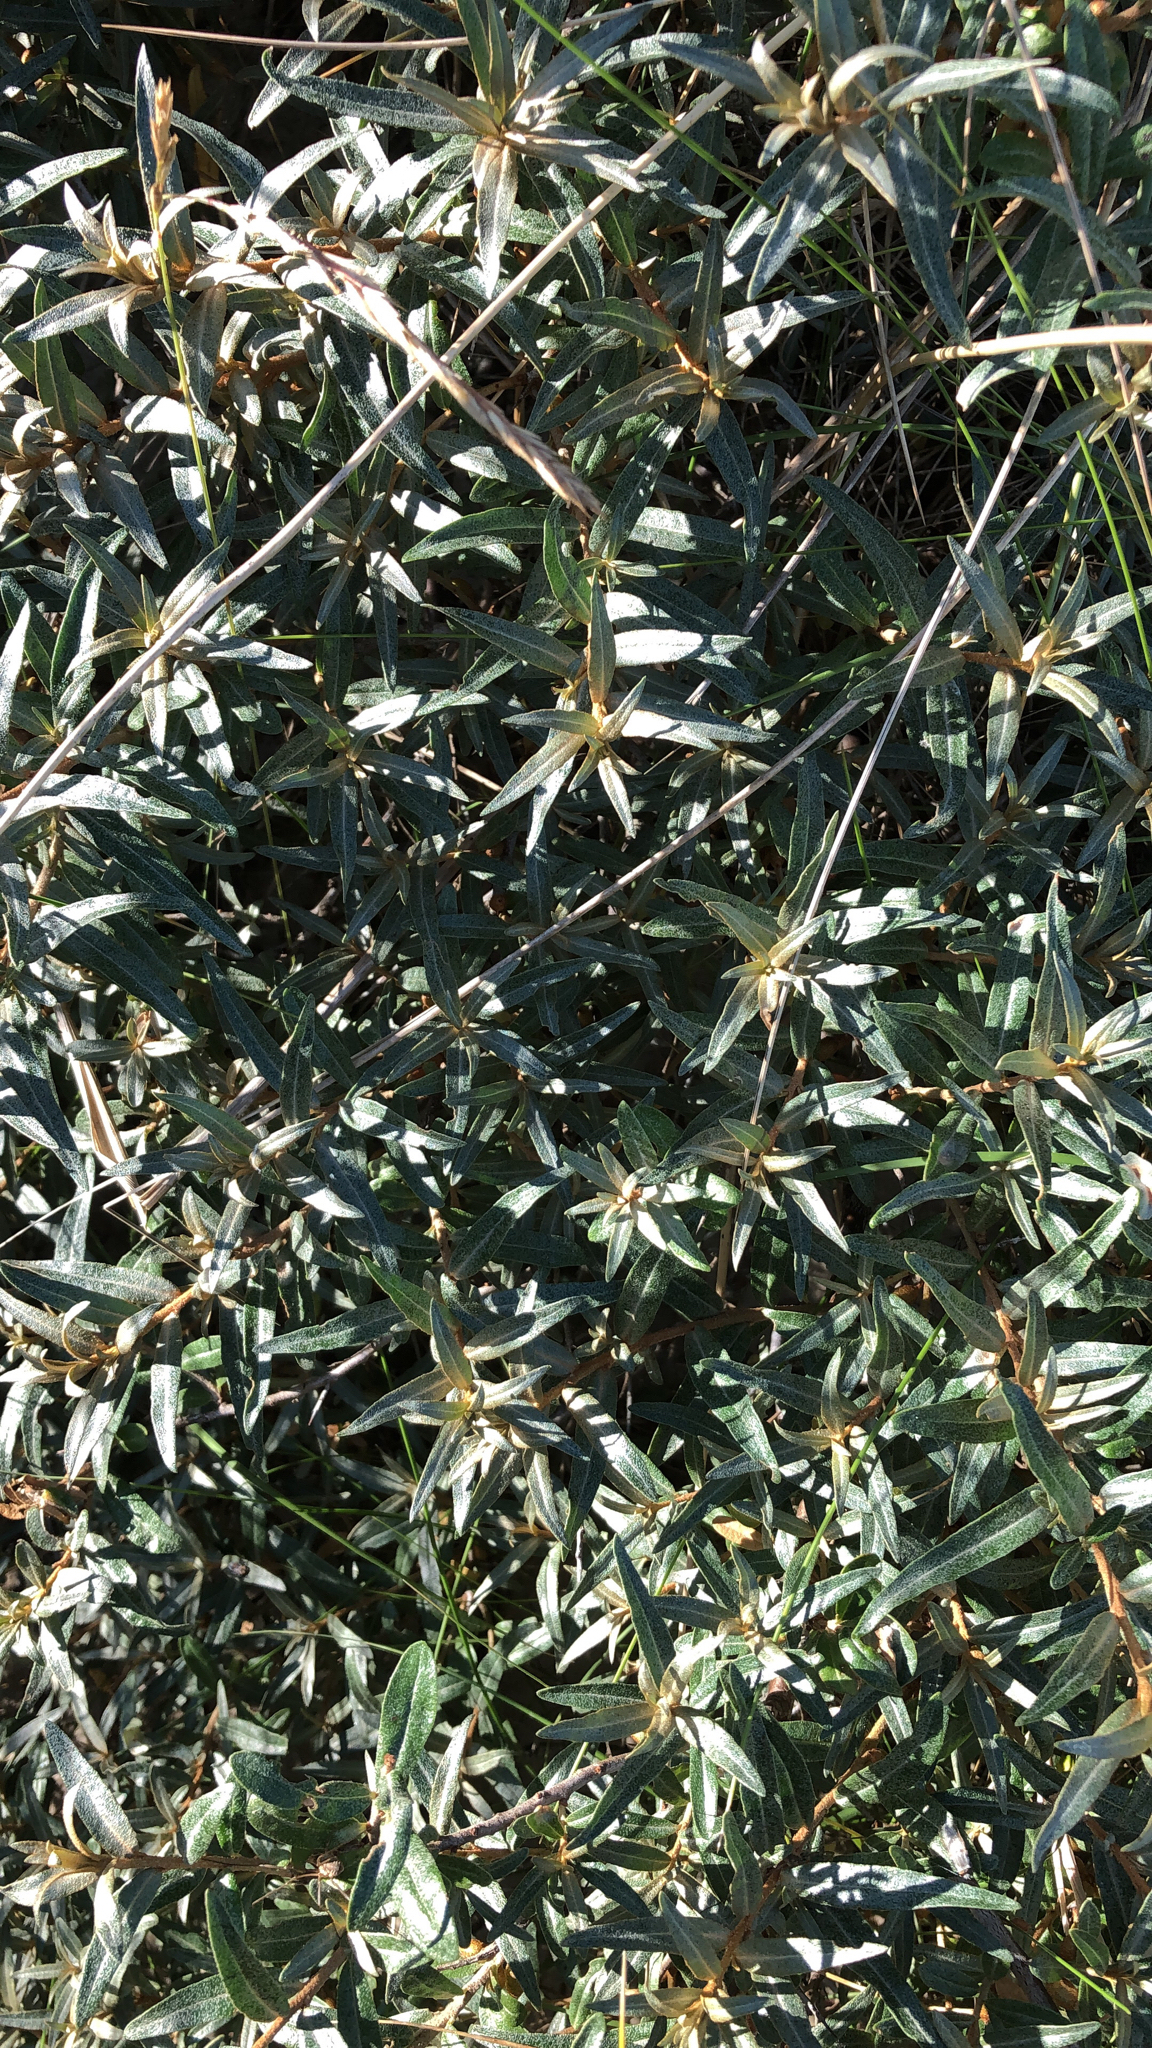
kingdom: Plantae
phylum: Tracheophyta
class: Magnoliopsida
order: Rosales
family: Elaeagnaceae
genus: Hippophae
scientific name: Hippophae rhamnoides
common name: Sea-buckthorn
